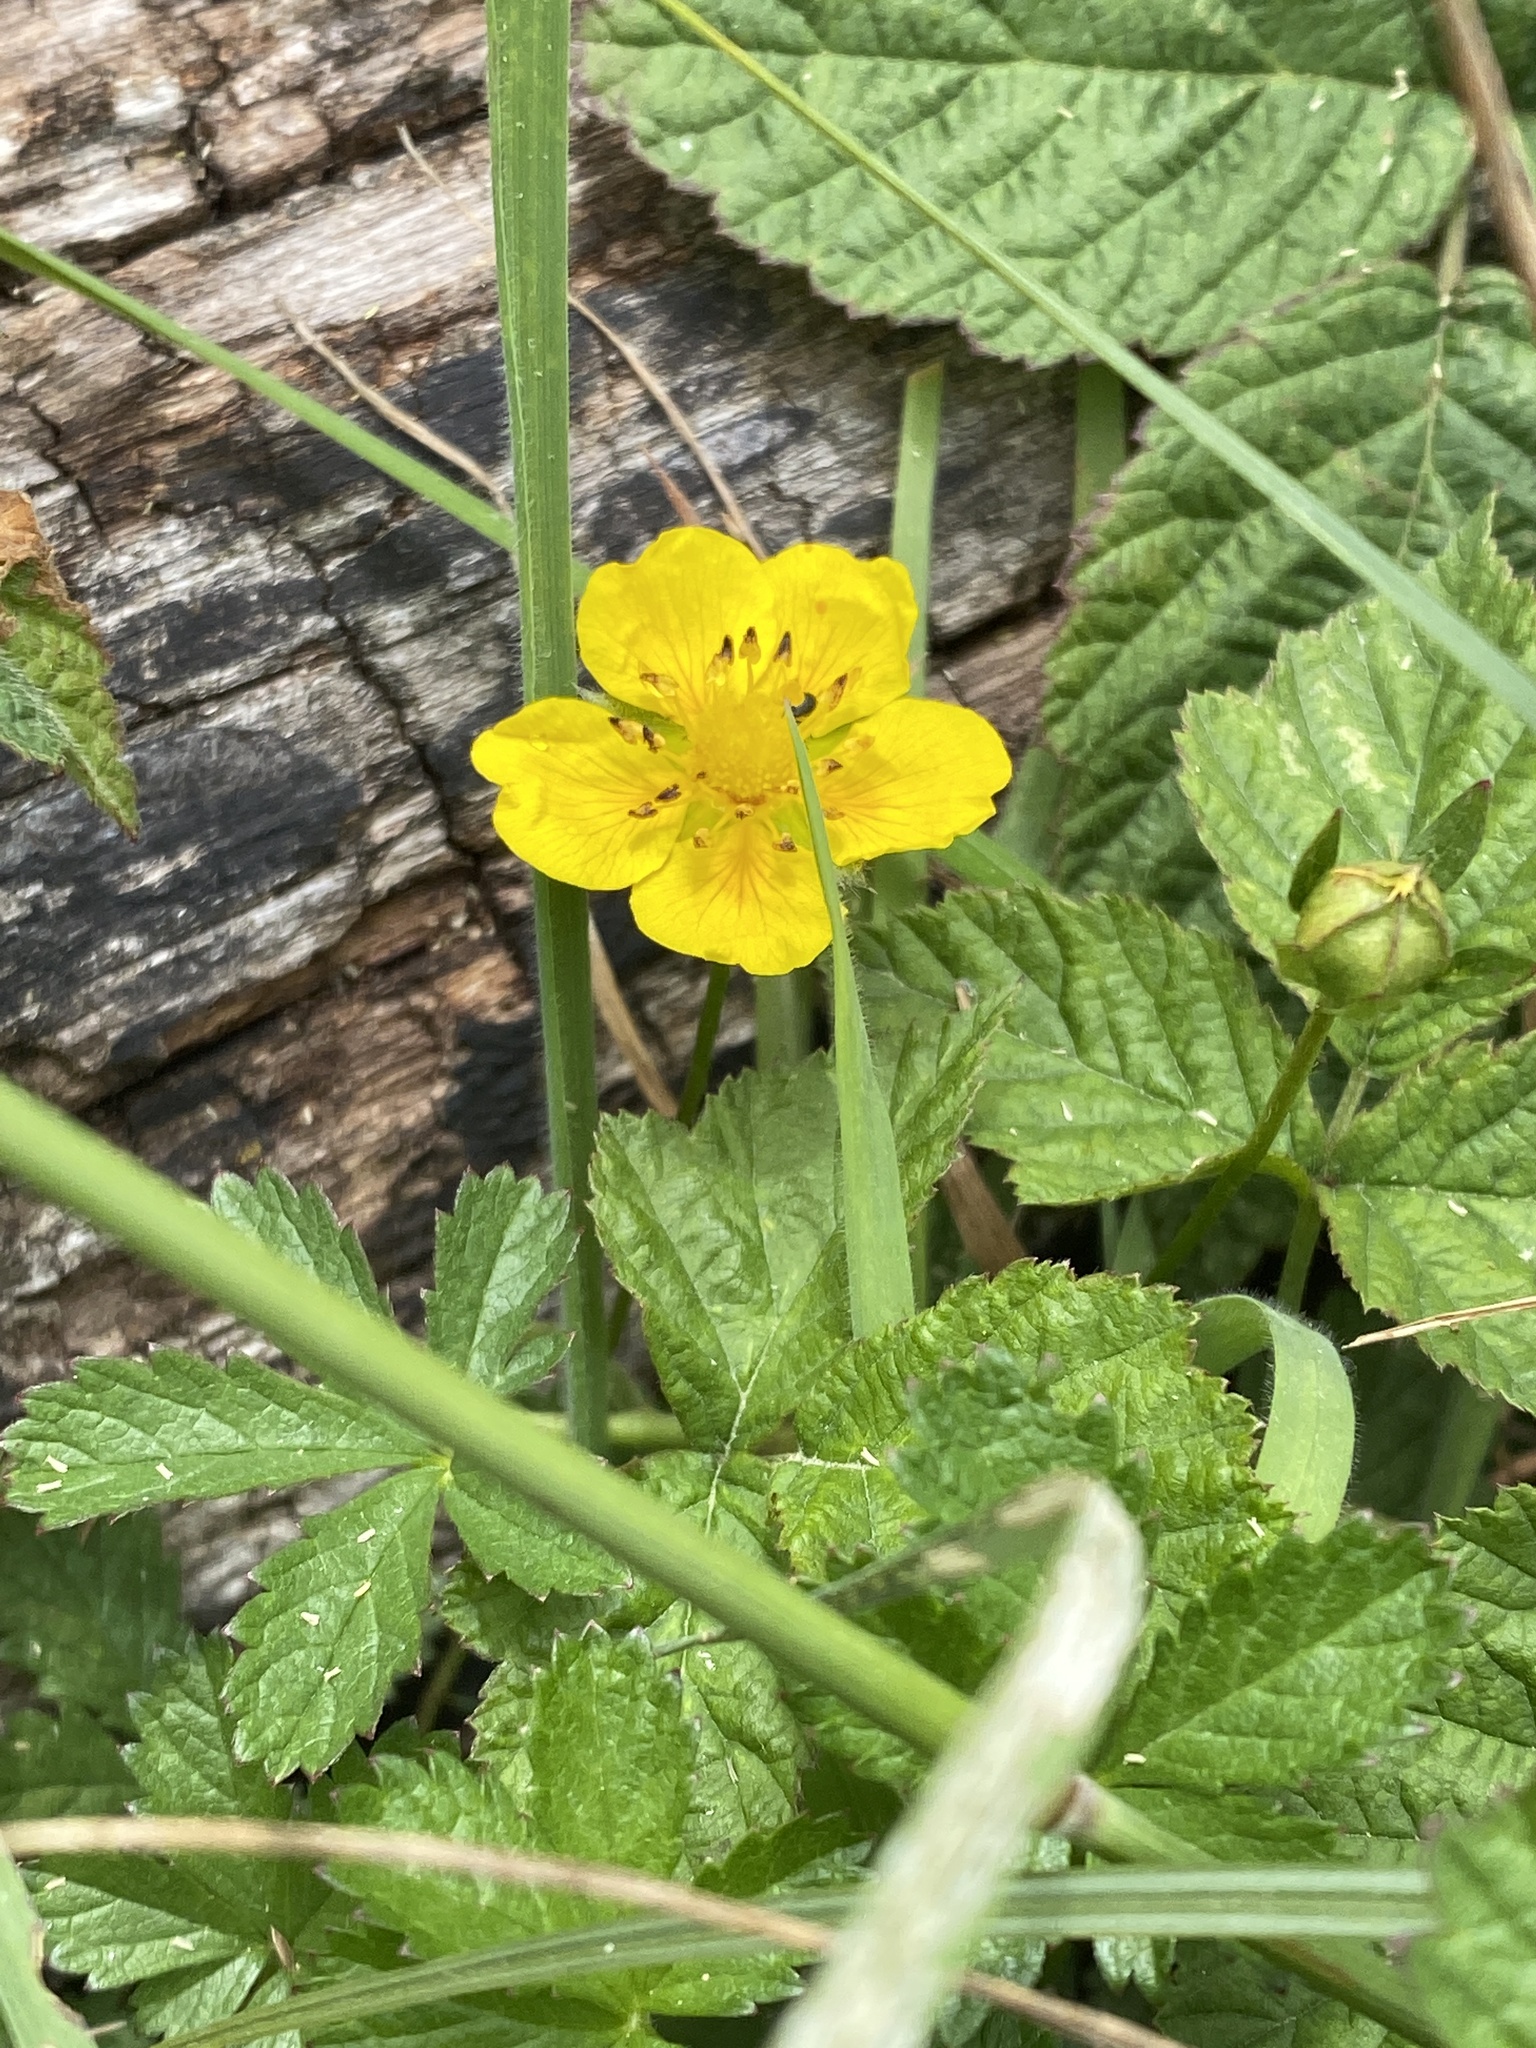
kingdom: Plantae
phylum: Tracheophyta
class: Magnoliopsida
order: Rosales
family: Rosaceae
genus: Potentilla
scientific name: Potentilla reptans
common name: Creeping cinquefoil
